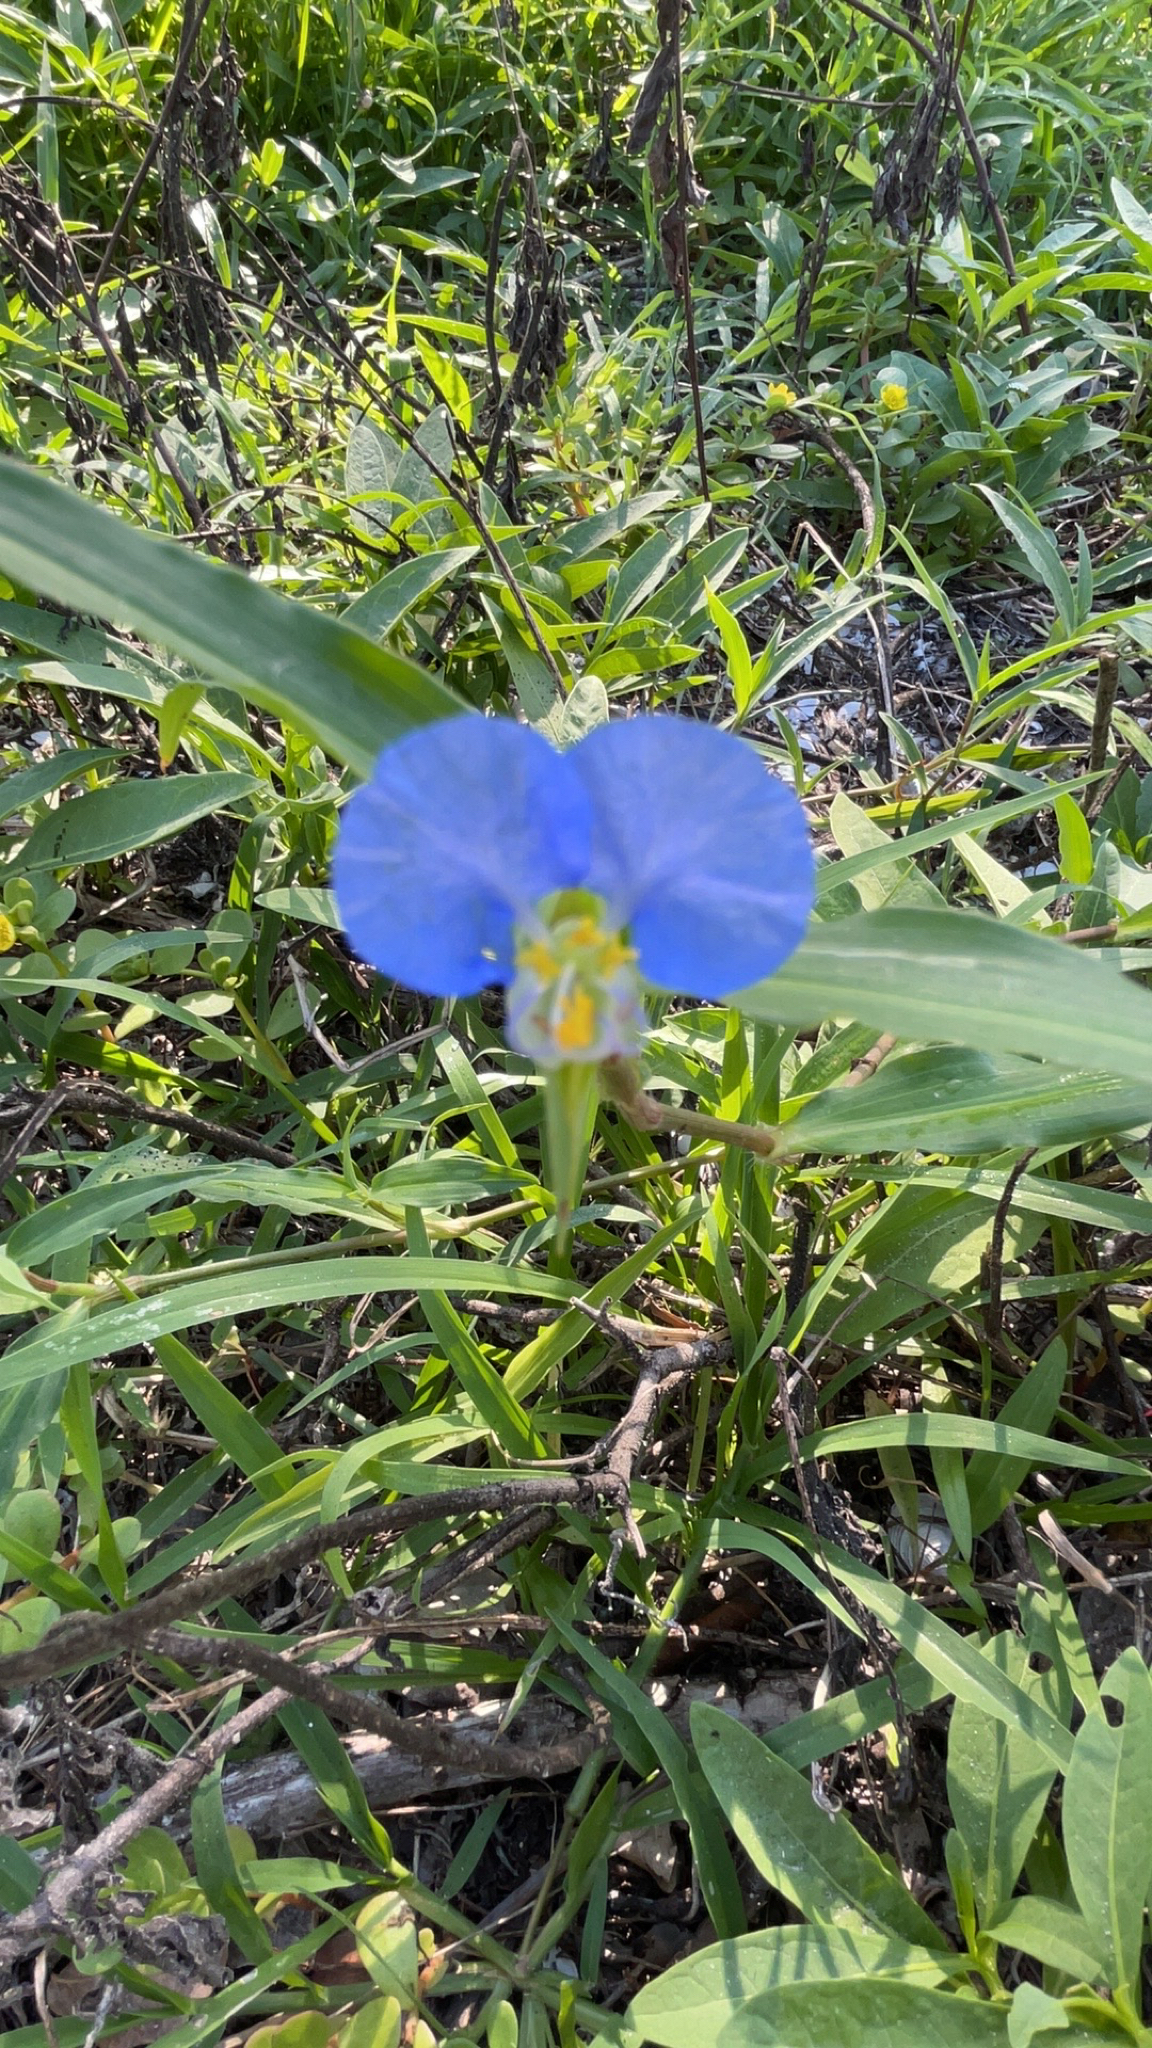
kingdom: Plantae
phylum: Tracheophyta
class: Liliopsida
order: Commelinales
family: Commelinaceae
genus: Commelina
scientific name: Commelina erecta
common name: Blousel blommetjie
